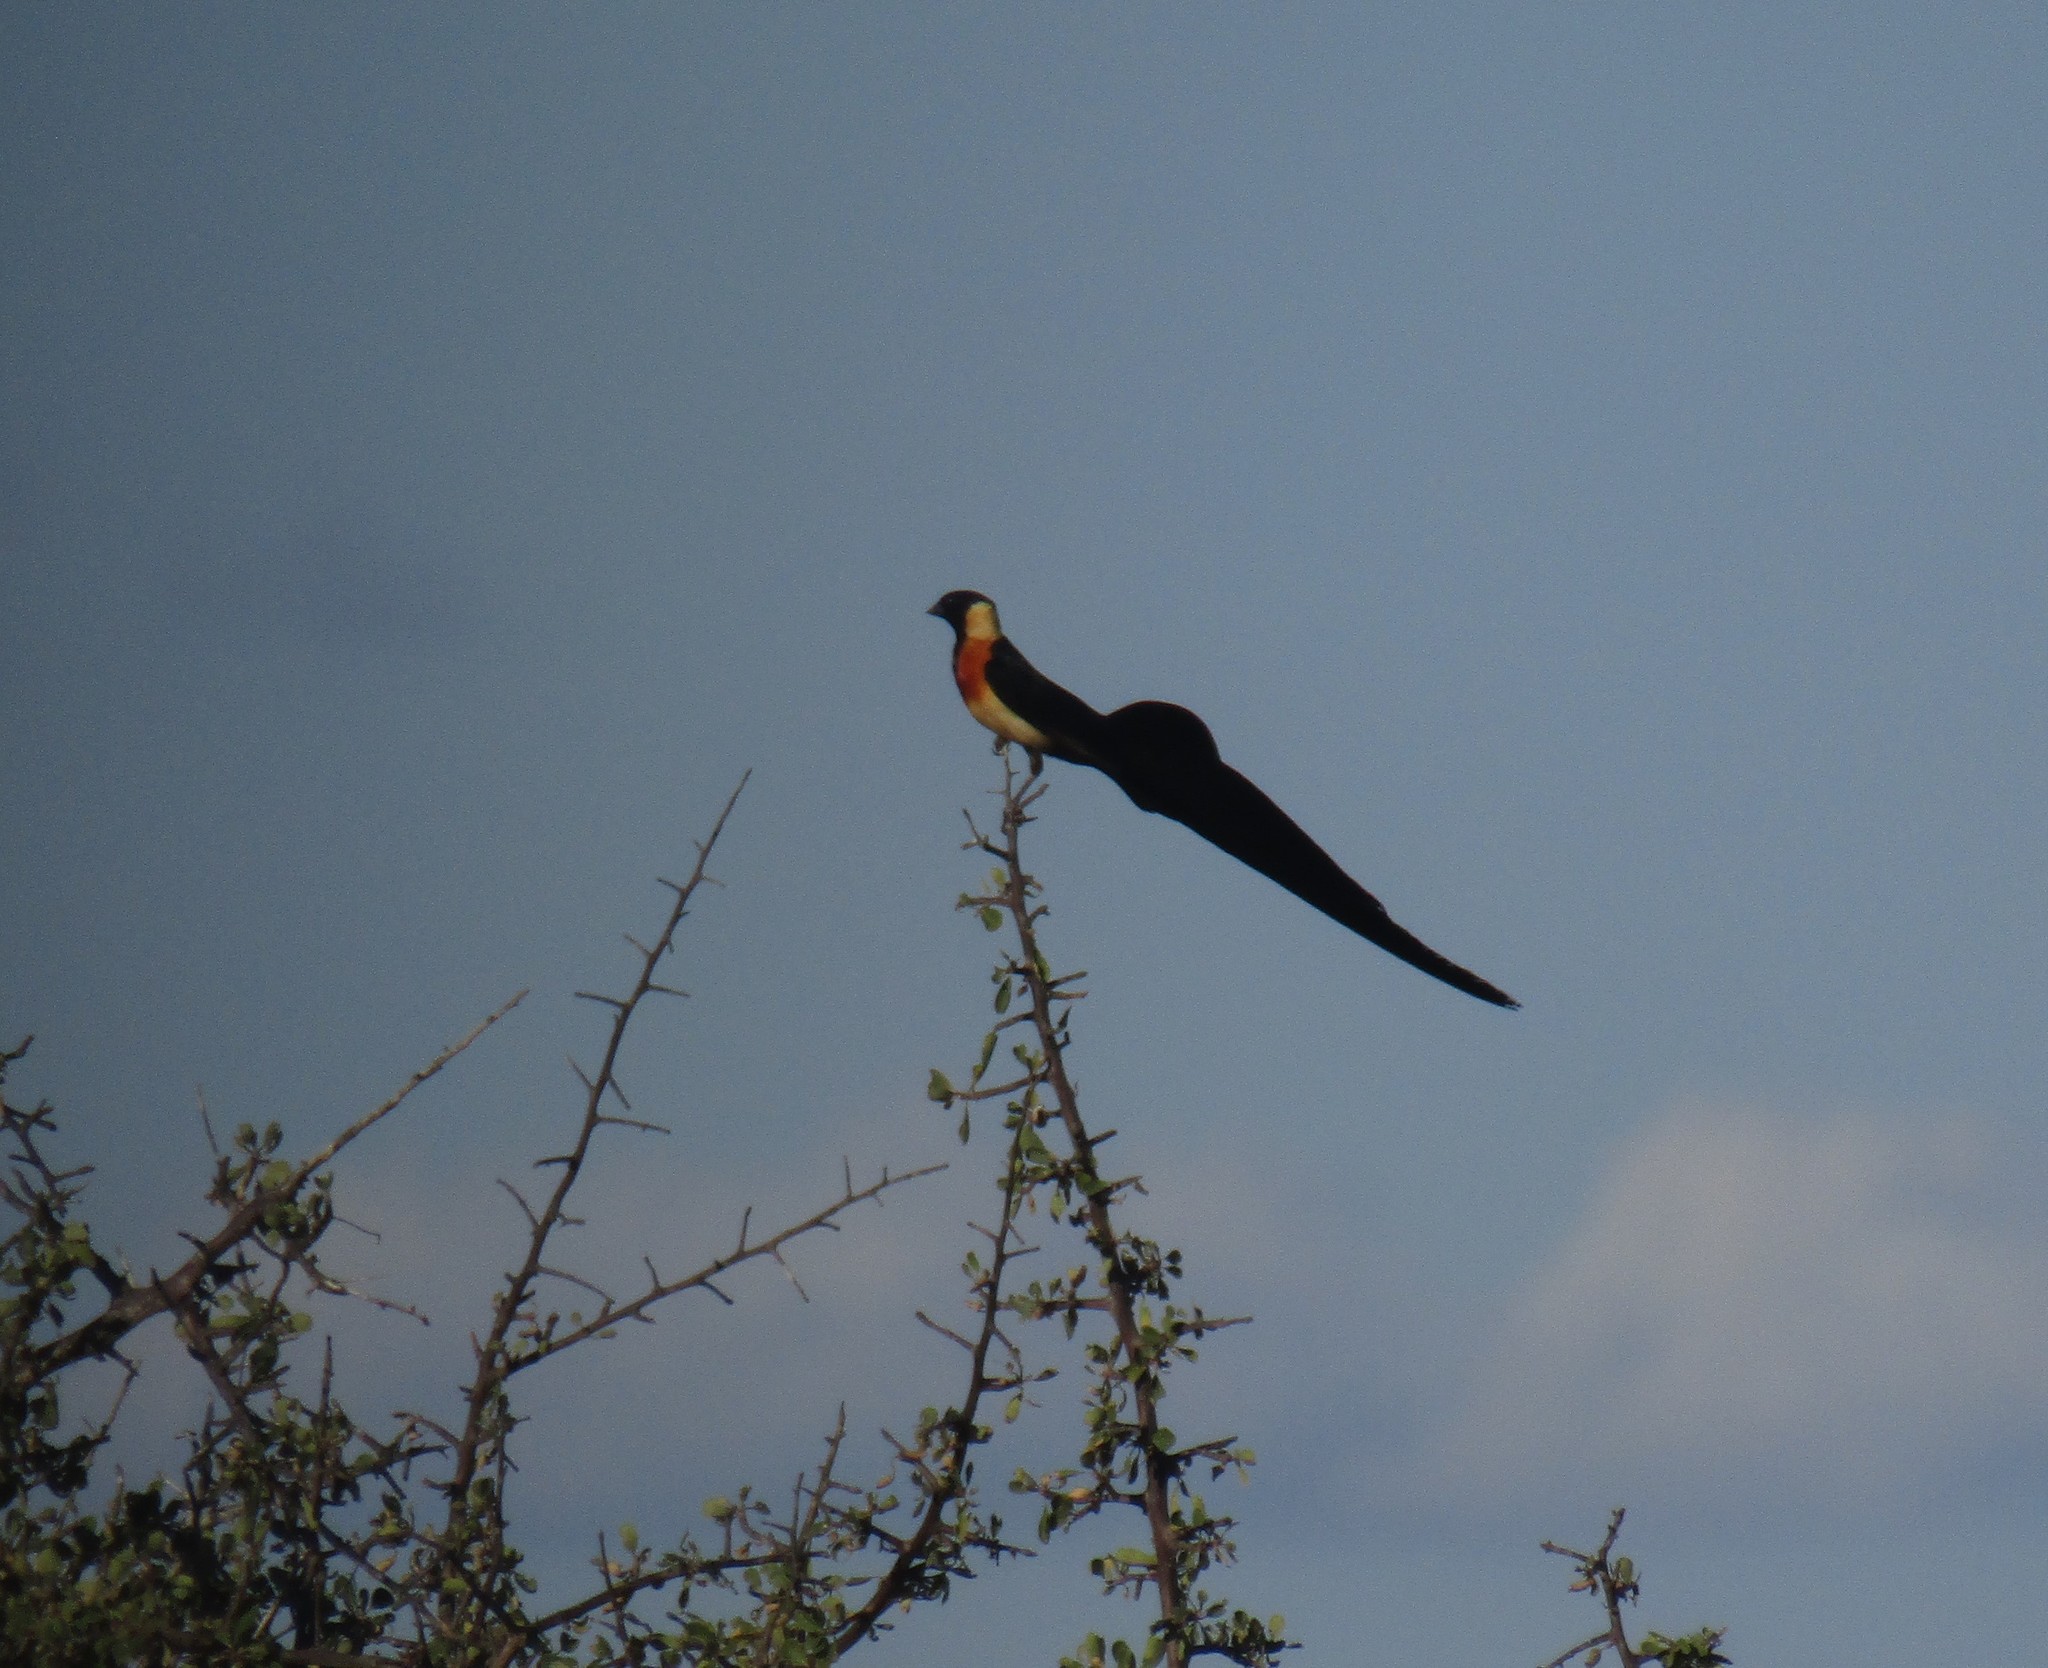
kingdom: Animalia
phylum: Chordata
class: Aves
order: Passeriformes
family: Viduidae
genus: Vidua
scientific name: Vidua paradisaea
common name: Long-tailed paradise whydah
